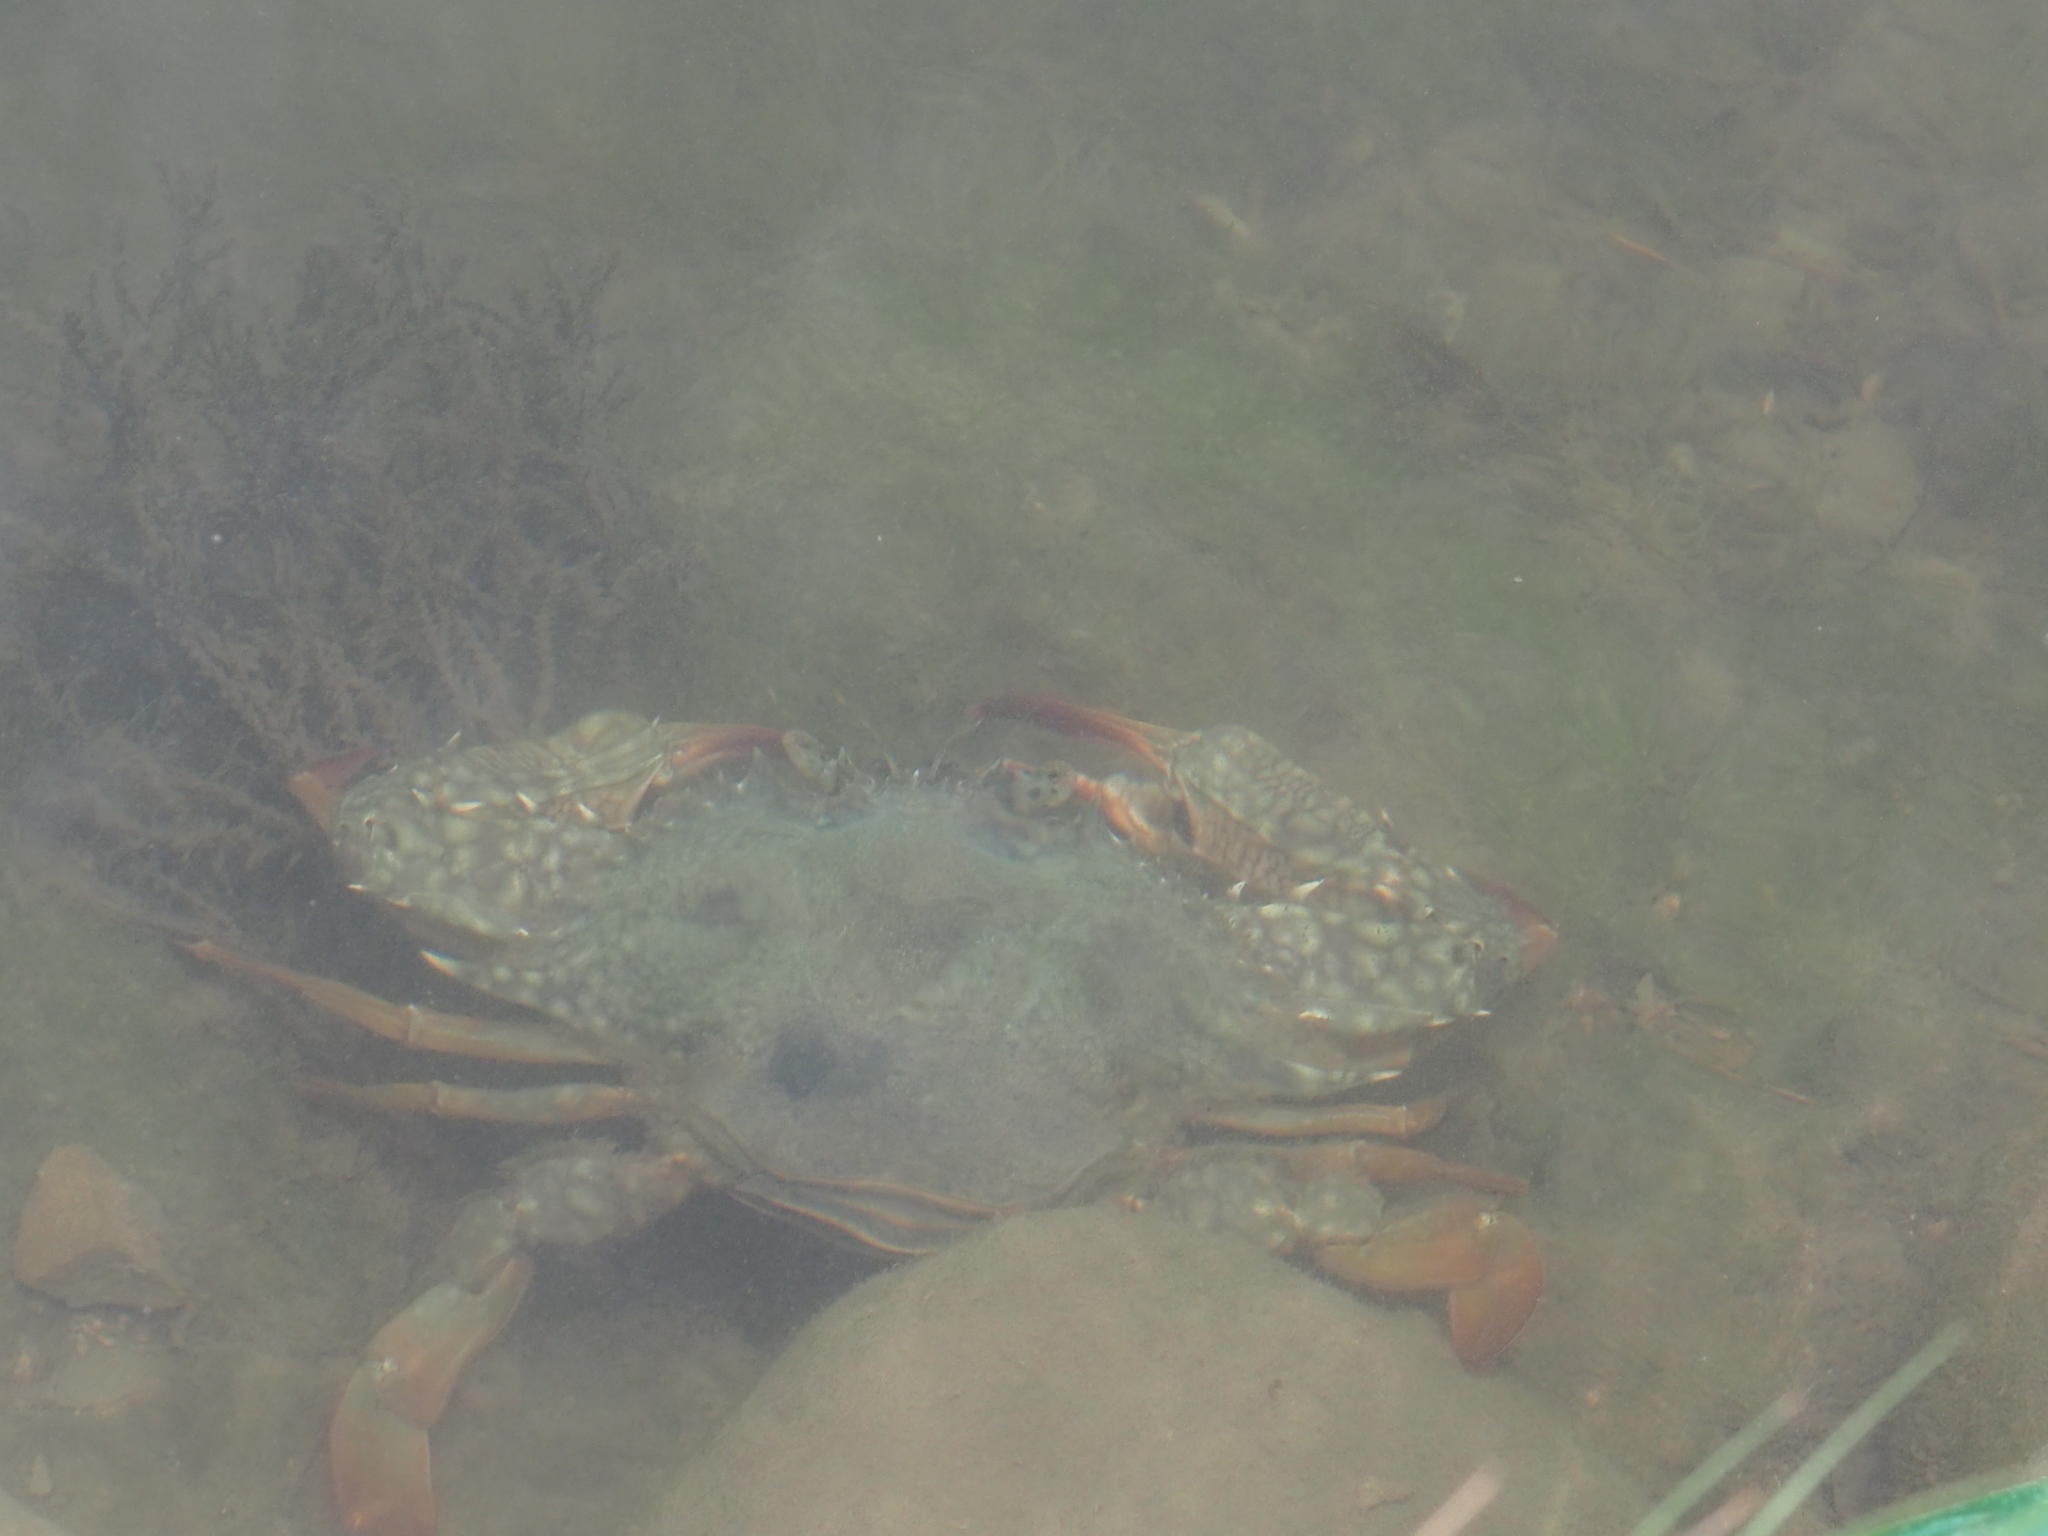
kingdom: Animalia
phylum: Arthropoda
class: Malacostraca
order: Decapoda
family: Portunidae
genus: Portunus
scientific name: Portunus pelagicus
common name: Blue swimming crab
